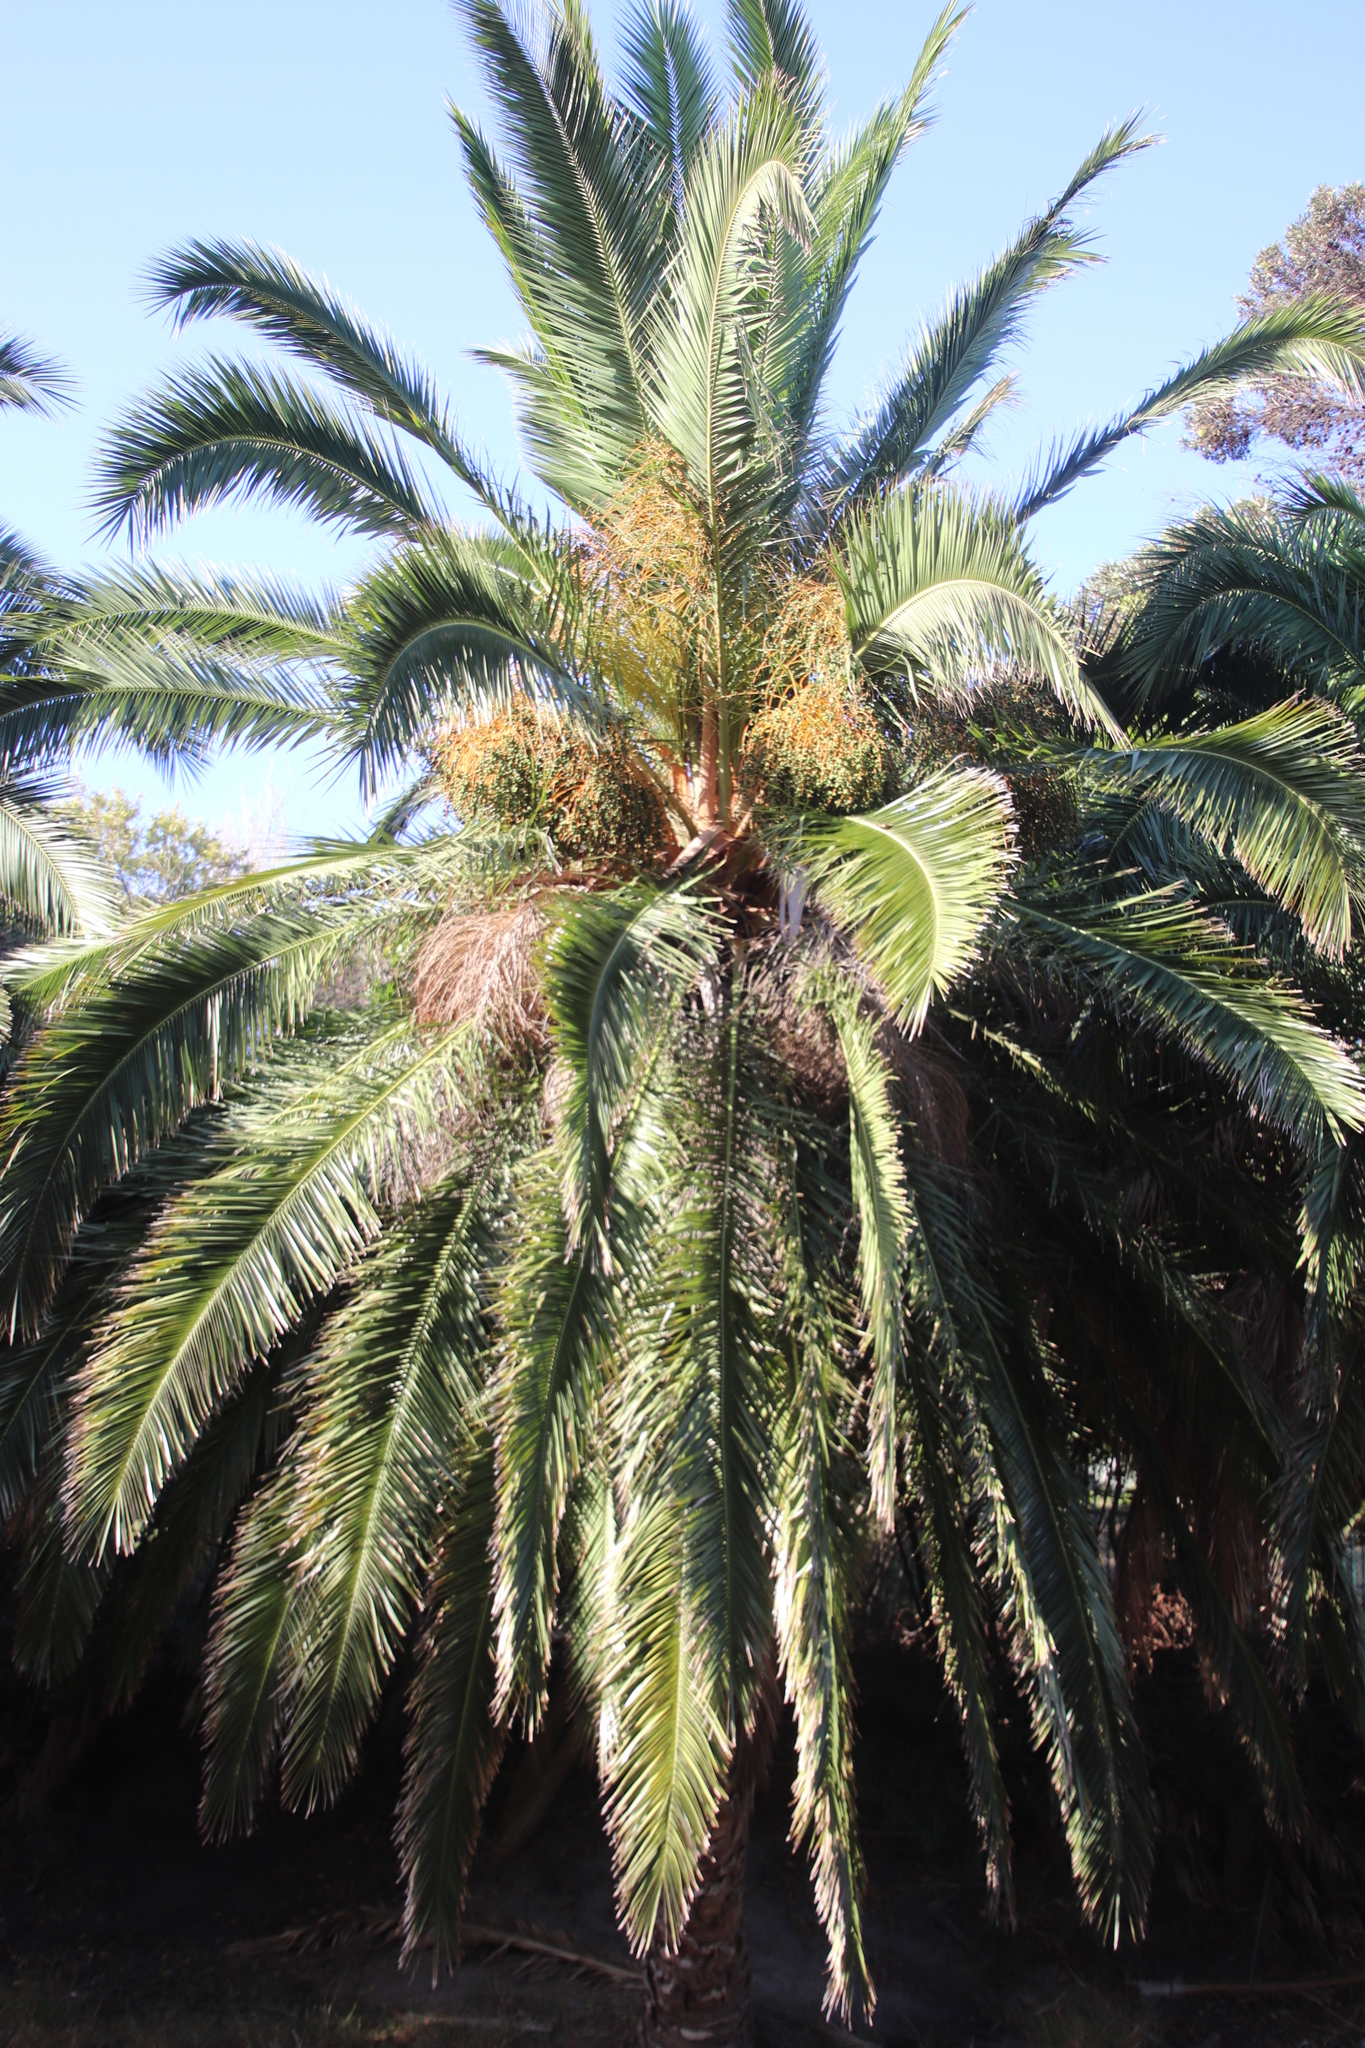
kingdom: Plantae
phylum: Tracheophyta
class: Liliopsida
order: Arecales
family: Arecaceae
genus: Phoenix
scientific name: Phoenix reclinata
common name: Senegal date palm
